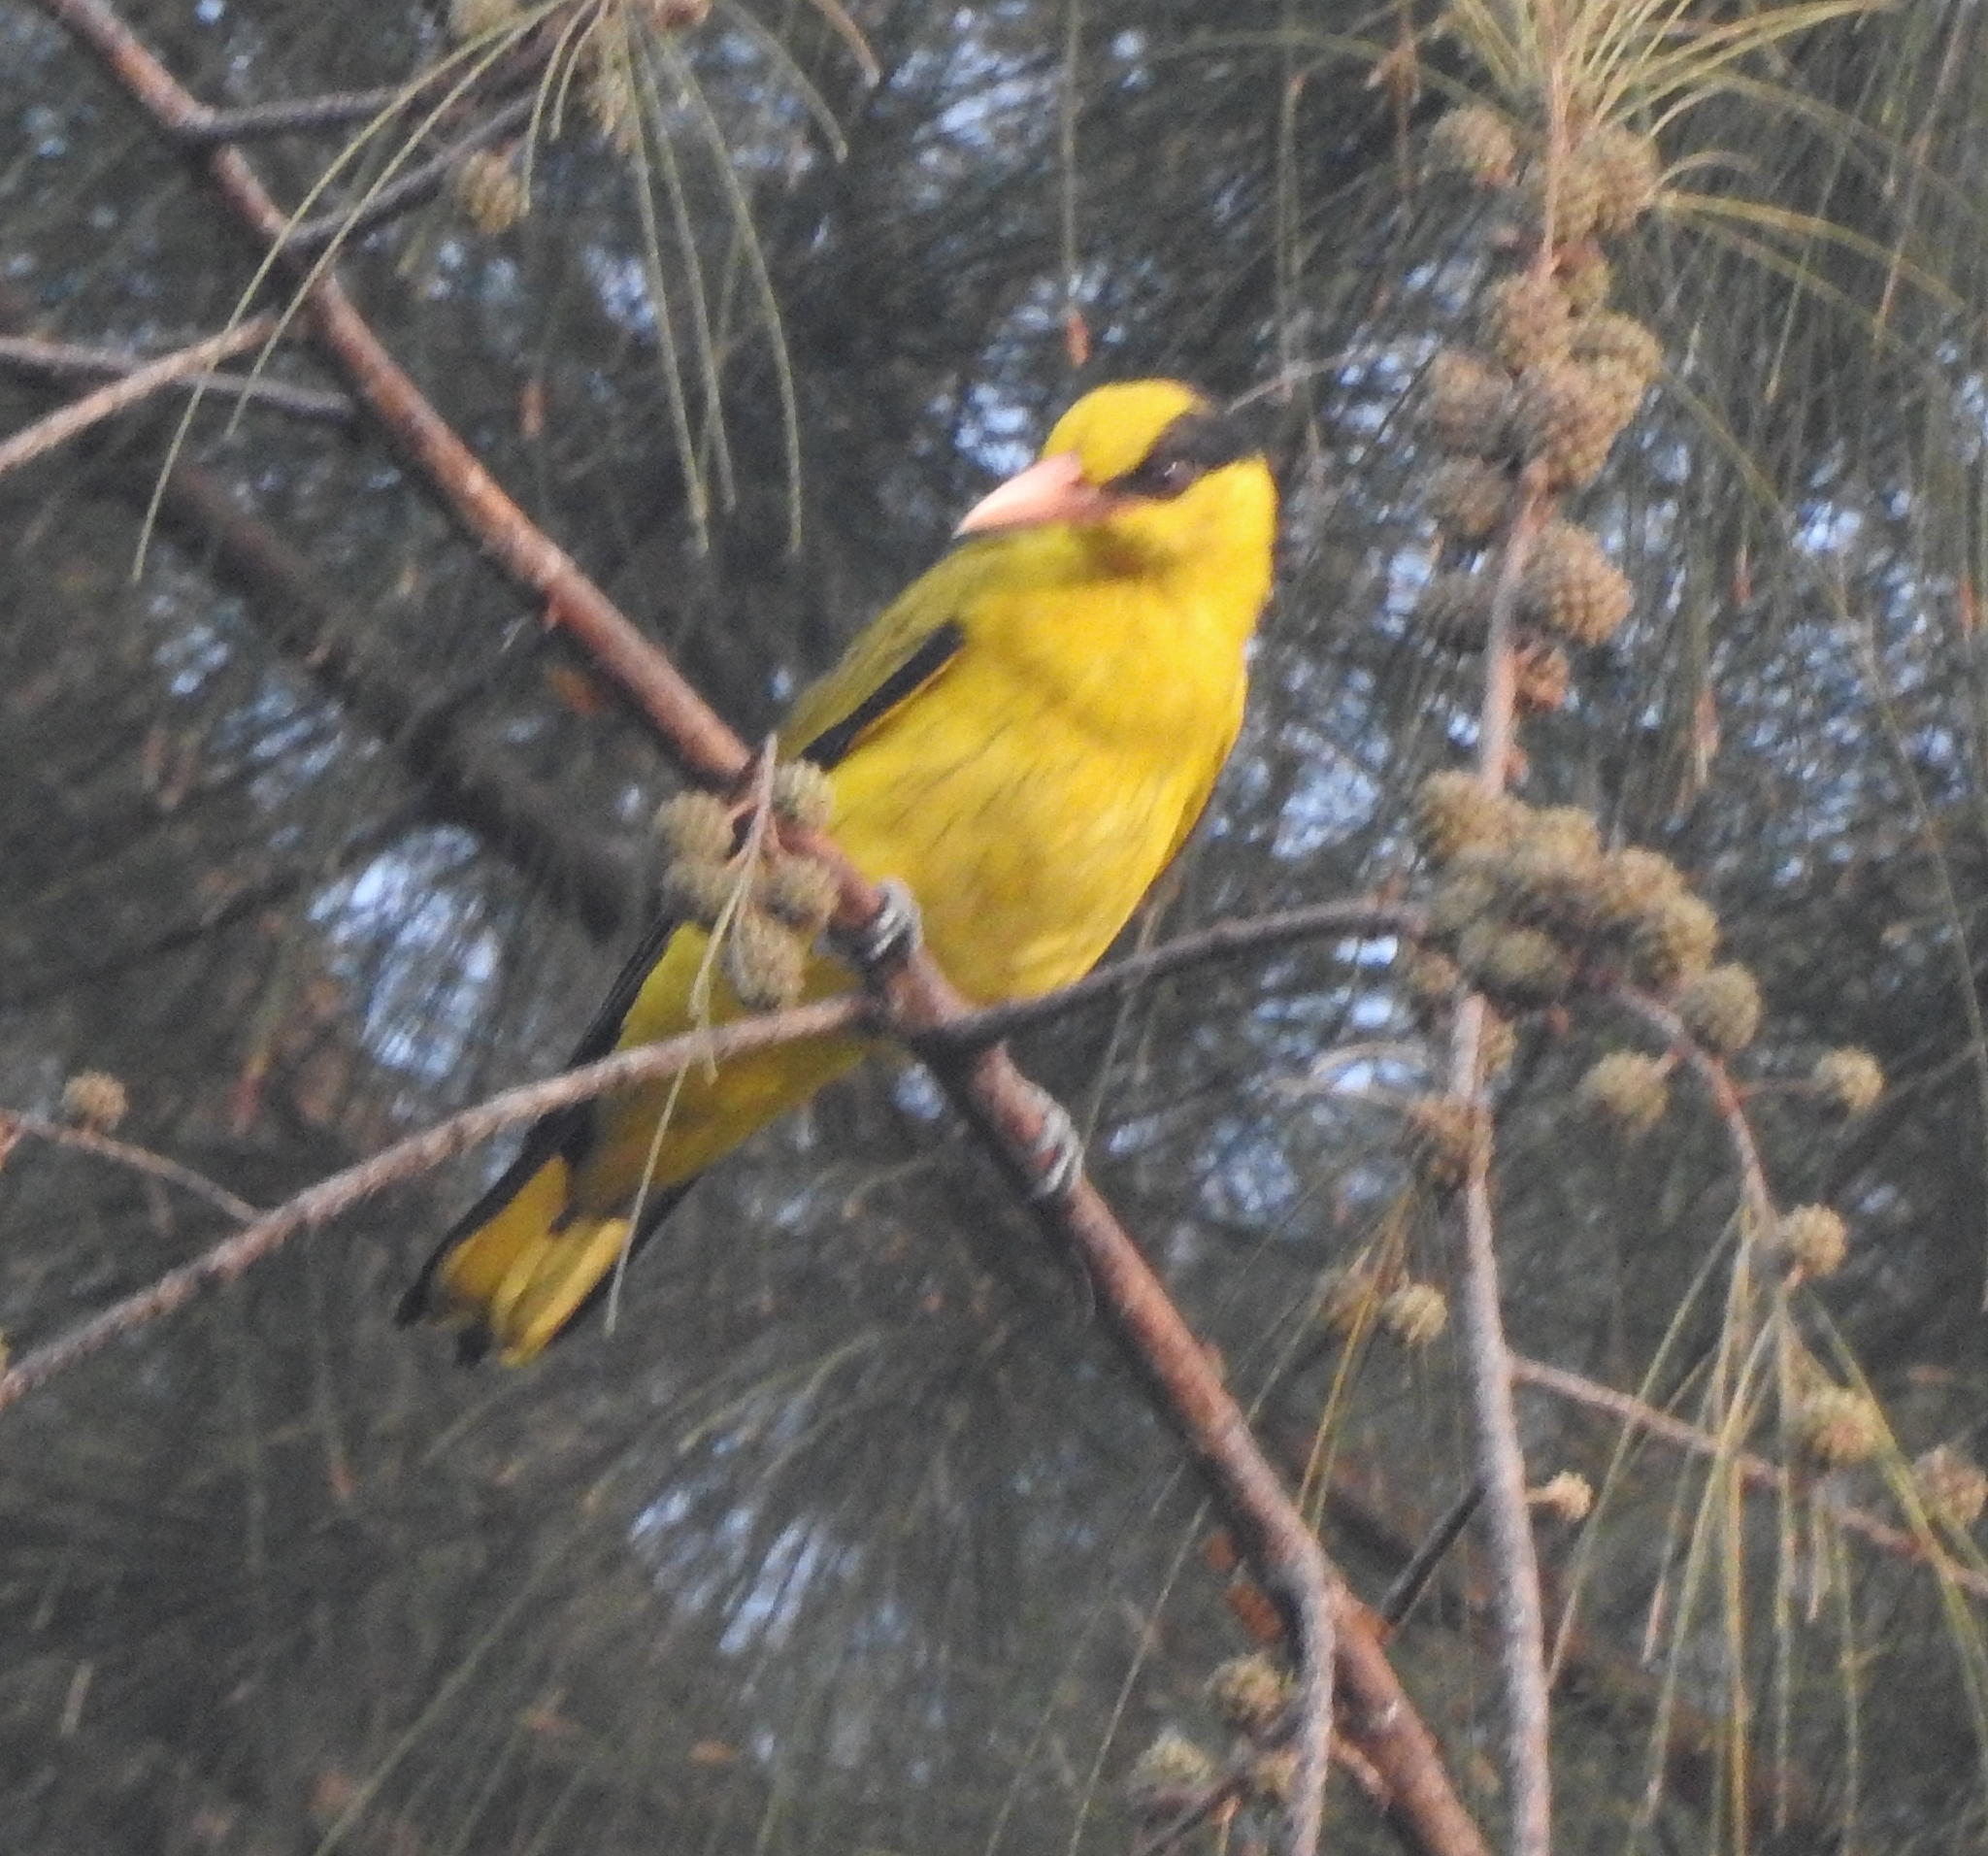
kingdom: Animalia
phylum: Chordata
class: Aves
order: Passeriformes
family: Oriolidae
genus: Oriolus
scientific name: Oriolus chinensis
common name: Black-naped oriole
